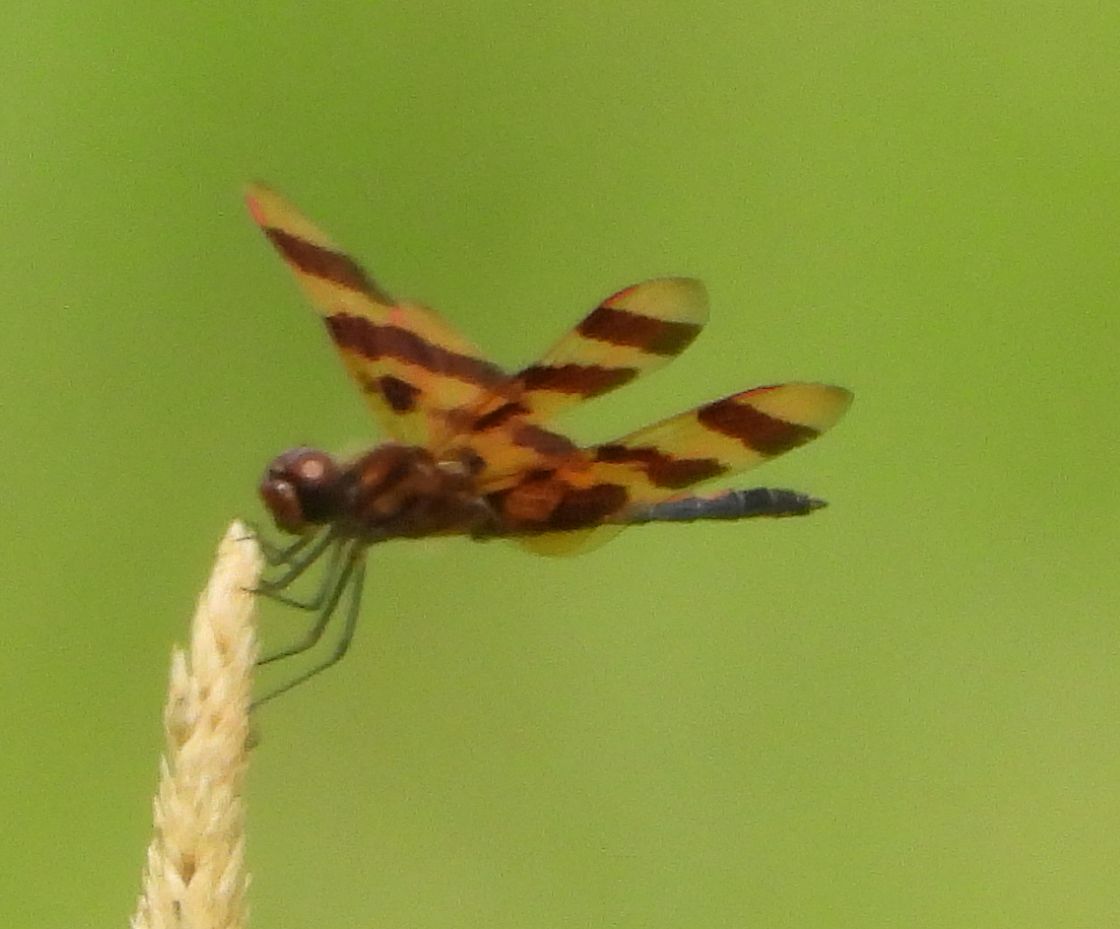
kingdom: Animalia
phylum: Arthropoda
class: Insecta
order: Odonata
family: Libellulidae
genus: Celithemis
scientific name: Celithemis eponina
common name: Halloween pennant
